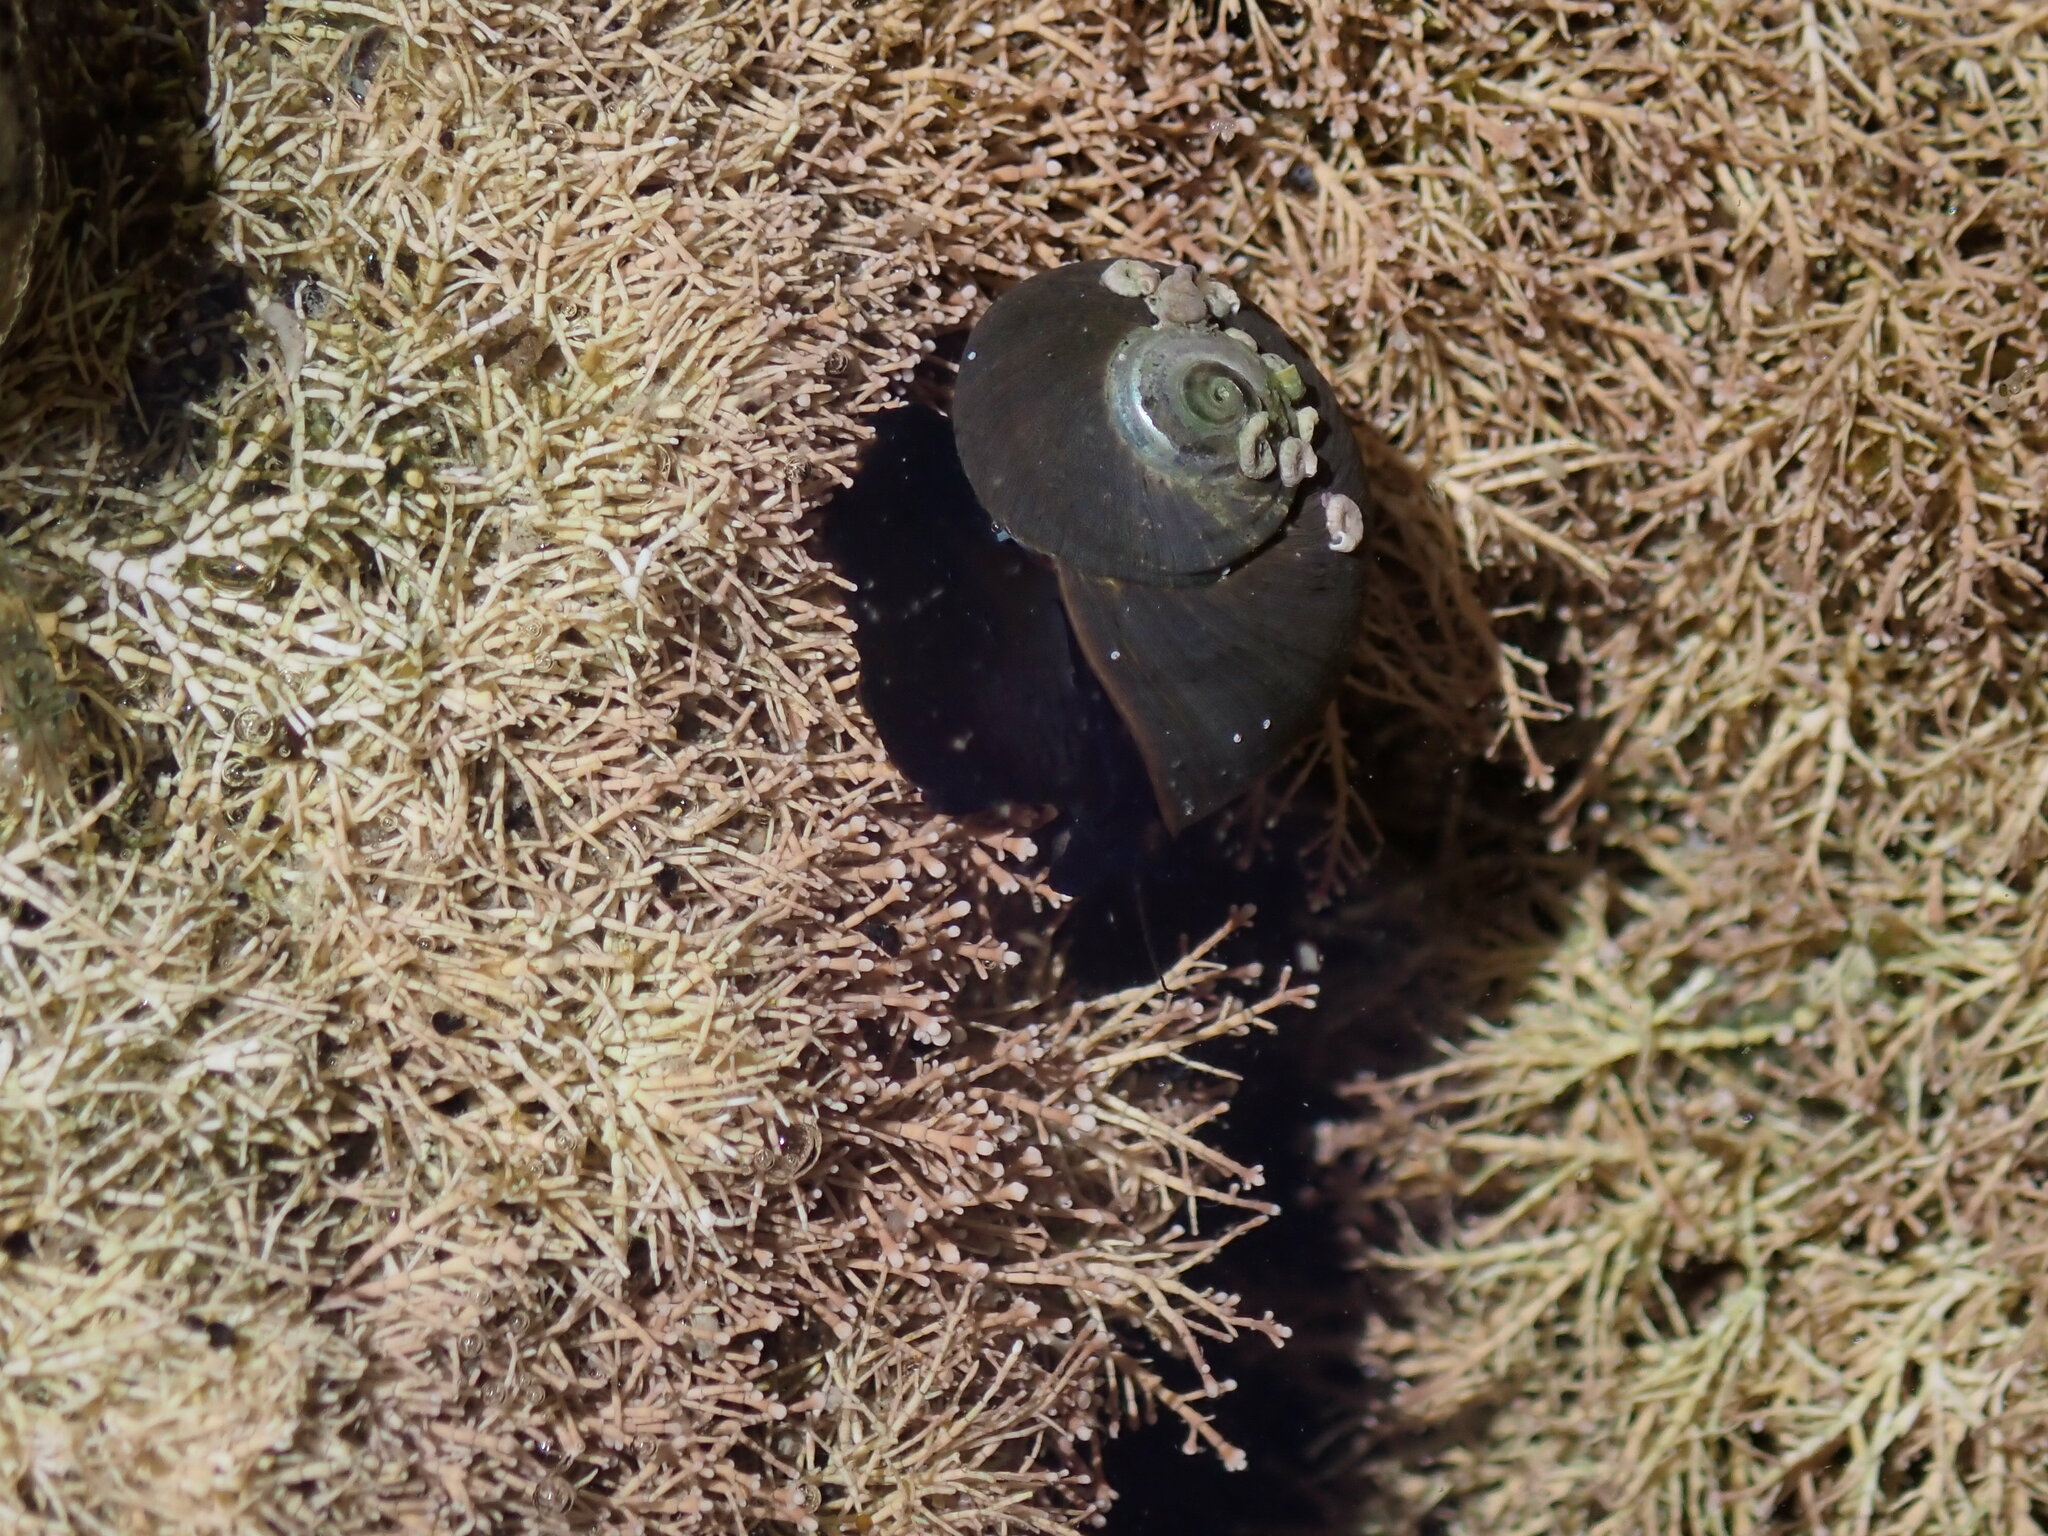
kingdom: Animalia
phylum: Mollusca
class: Gastropoda
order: Trochida
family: Turbinidae
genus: Lunella
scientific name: Lunella smaragda
